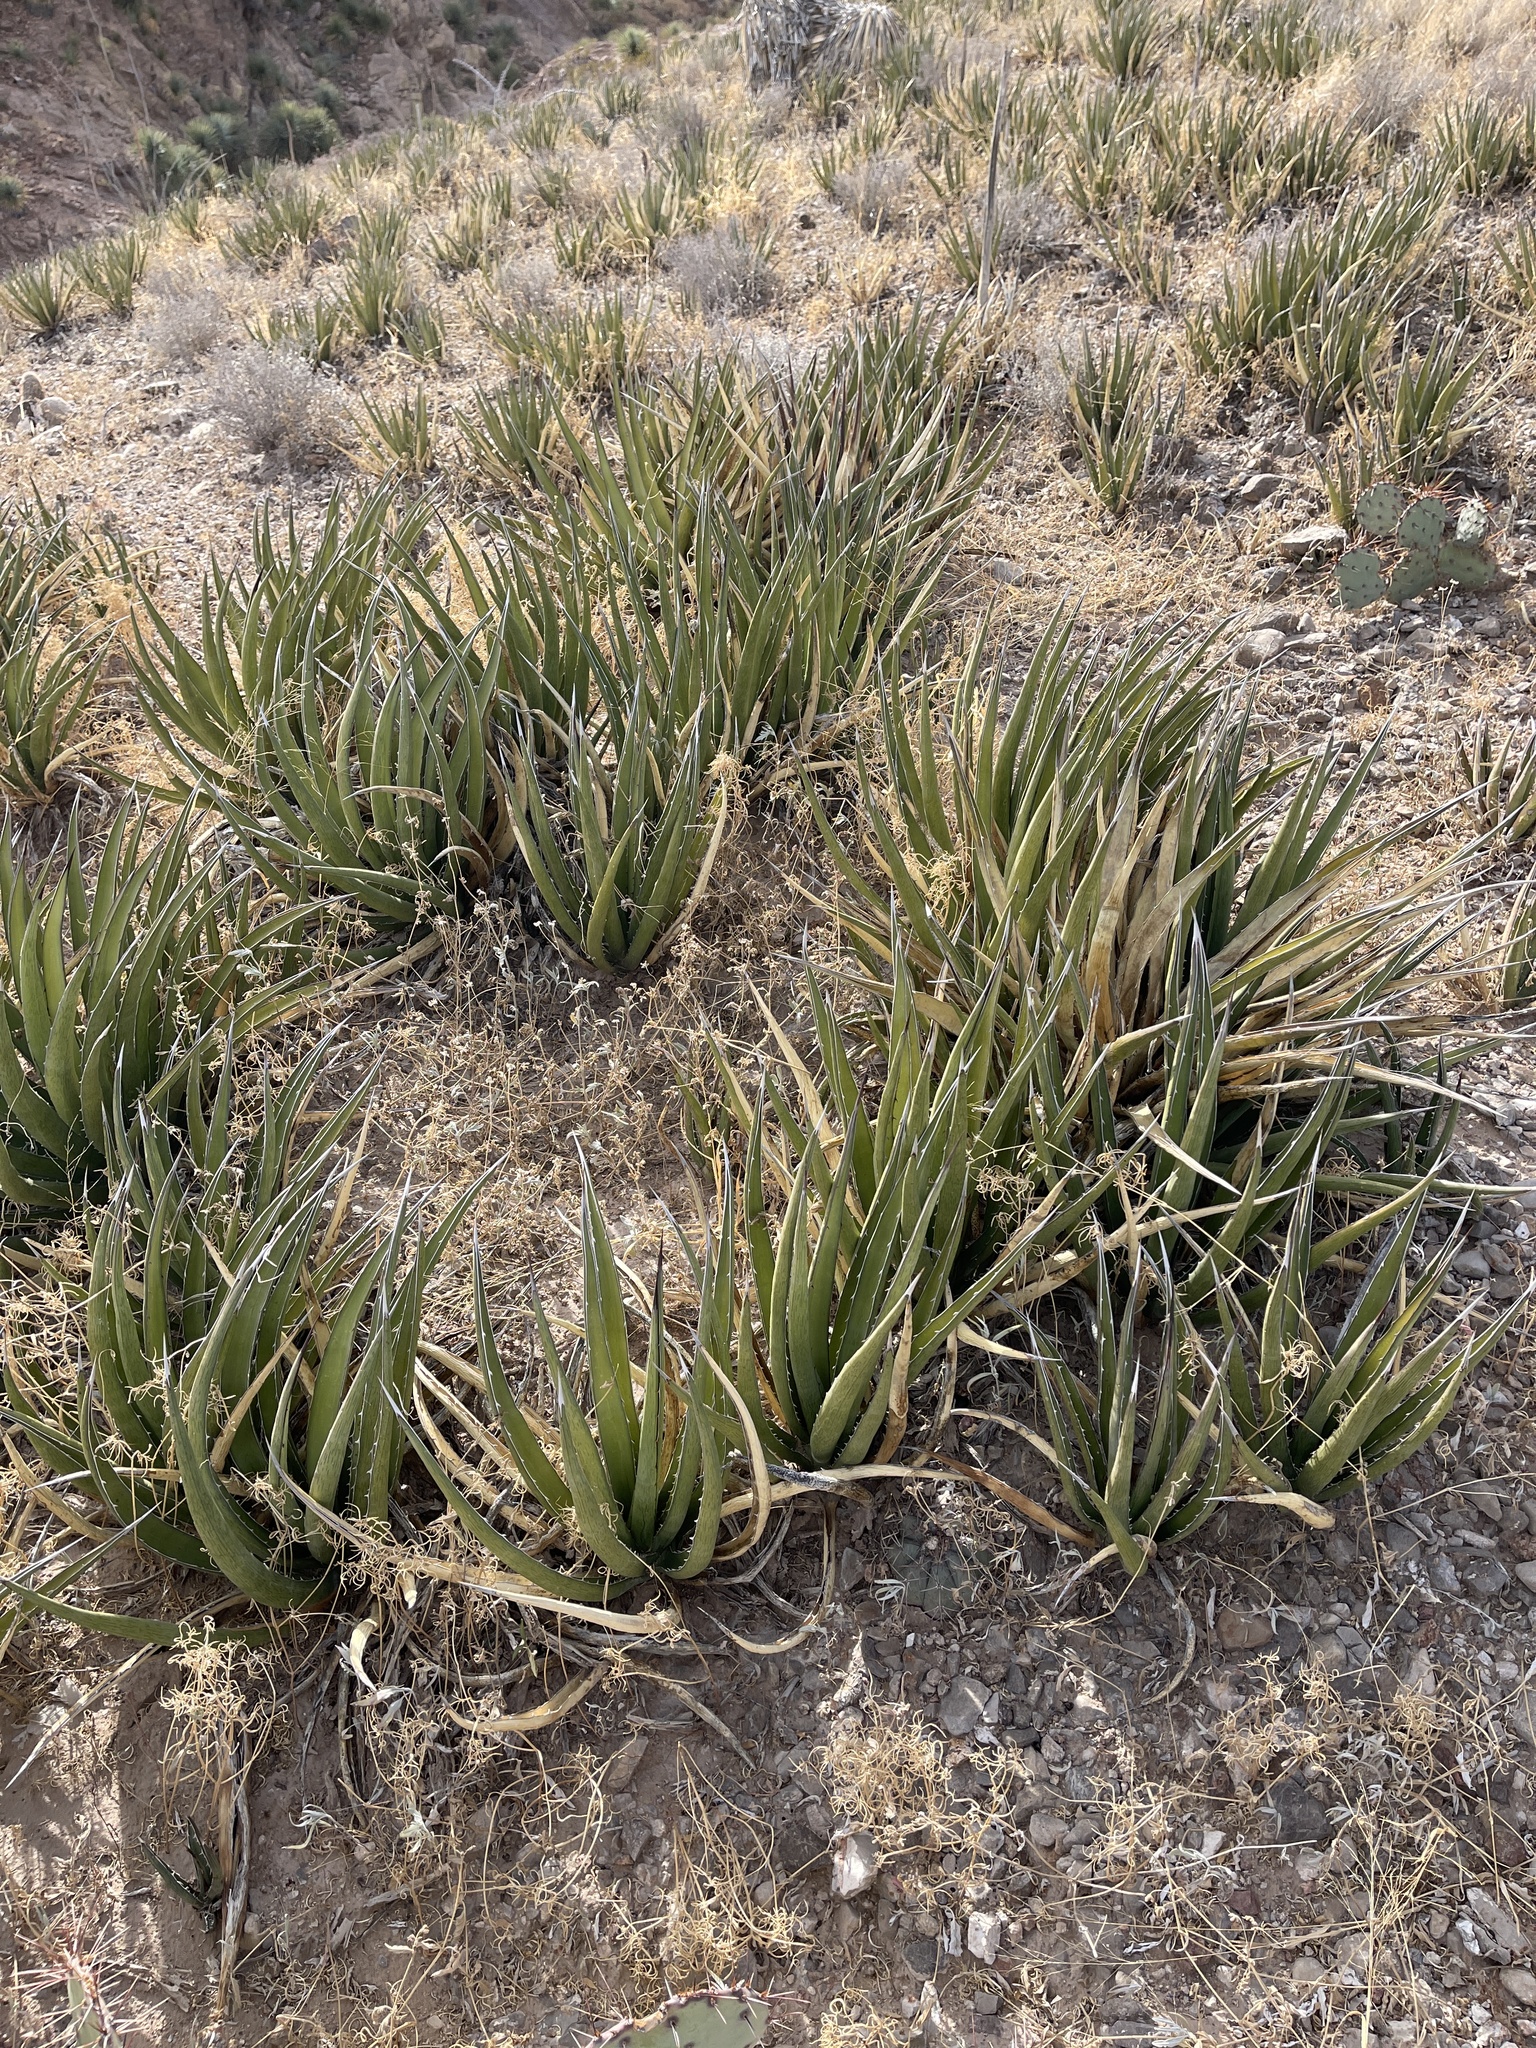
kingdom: Plantae
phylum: Tracheophyta
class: Liliopsida
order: Asparagales
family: Asparagaceae
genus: Agave
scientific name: Agave lechuguilla
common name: Lecheguilla agave
